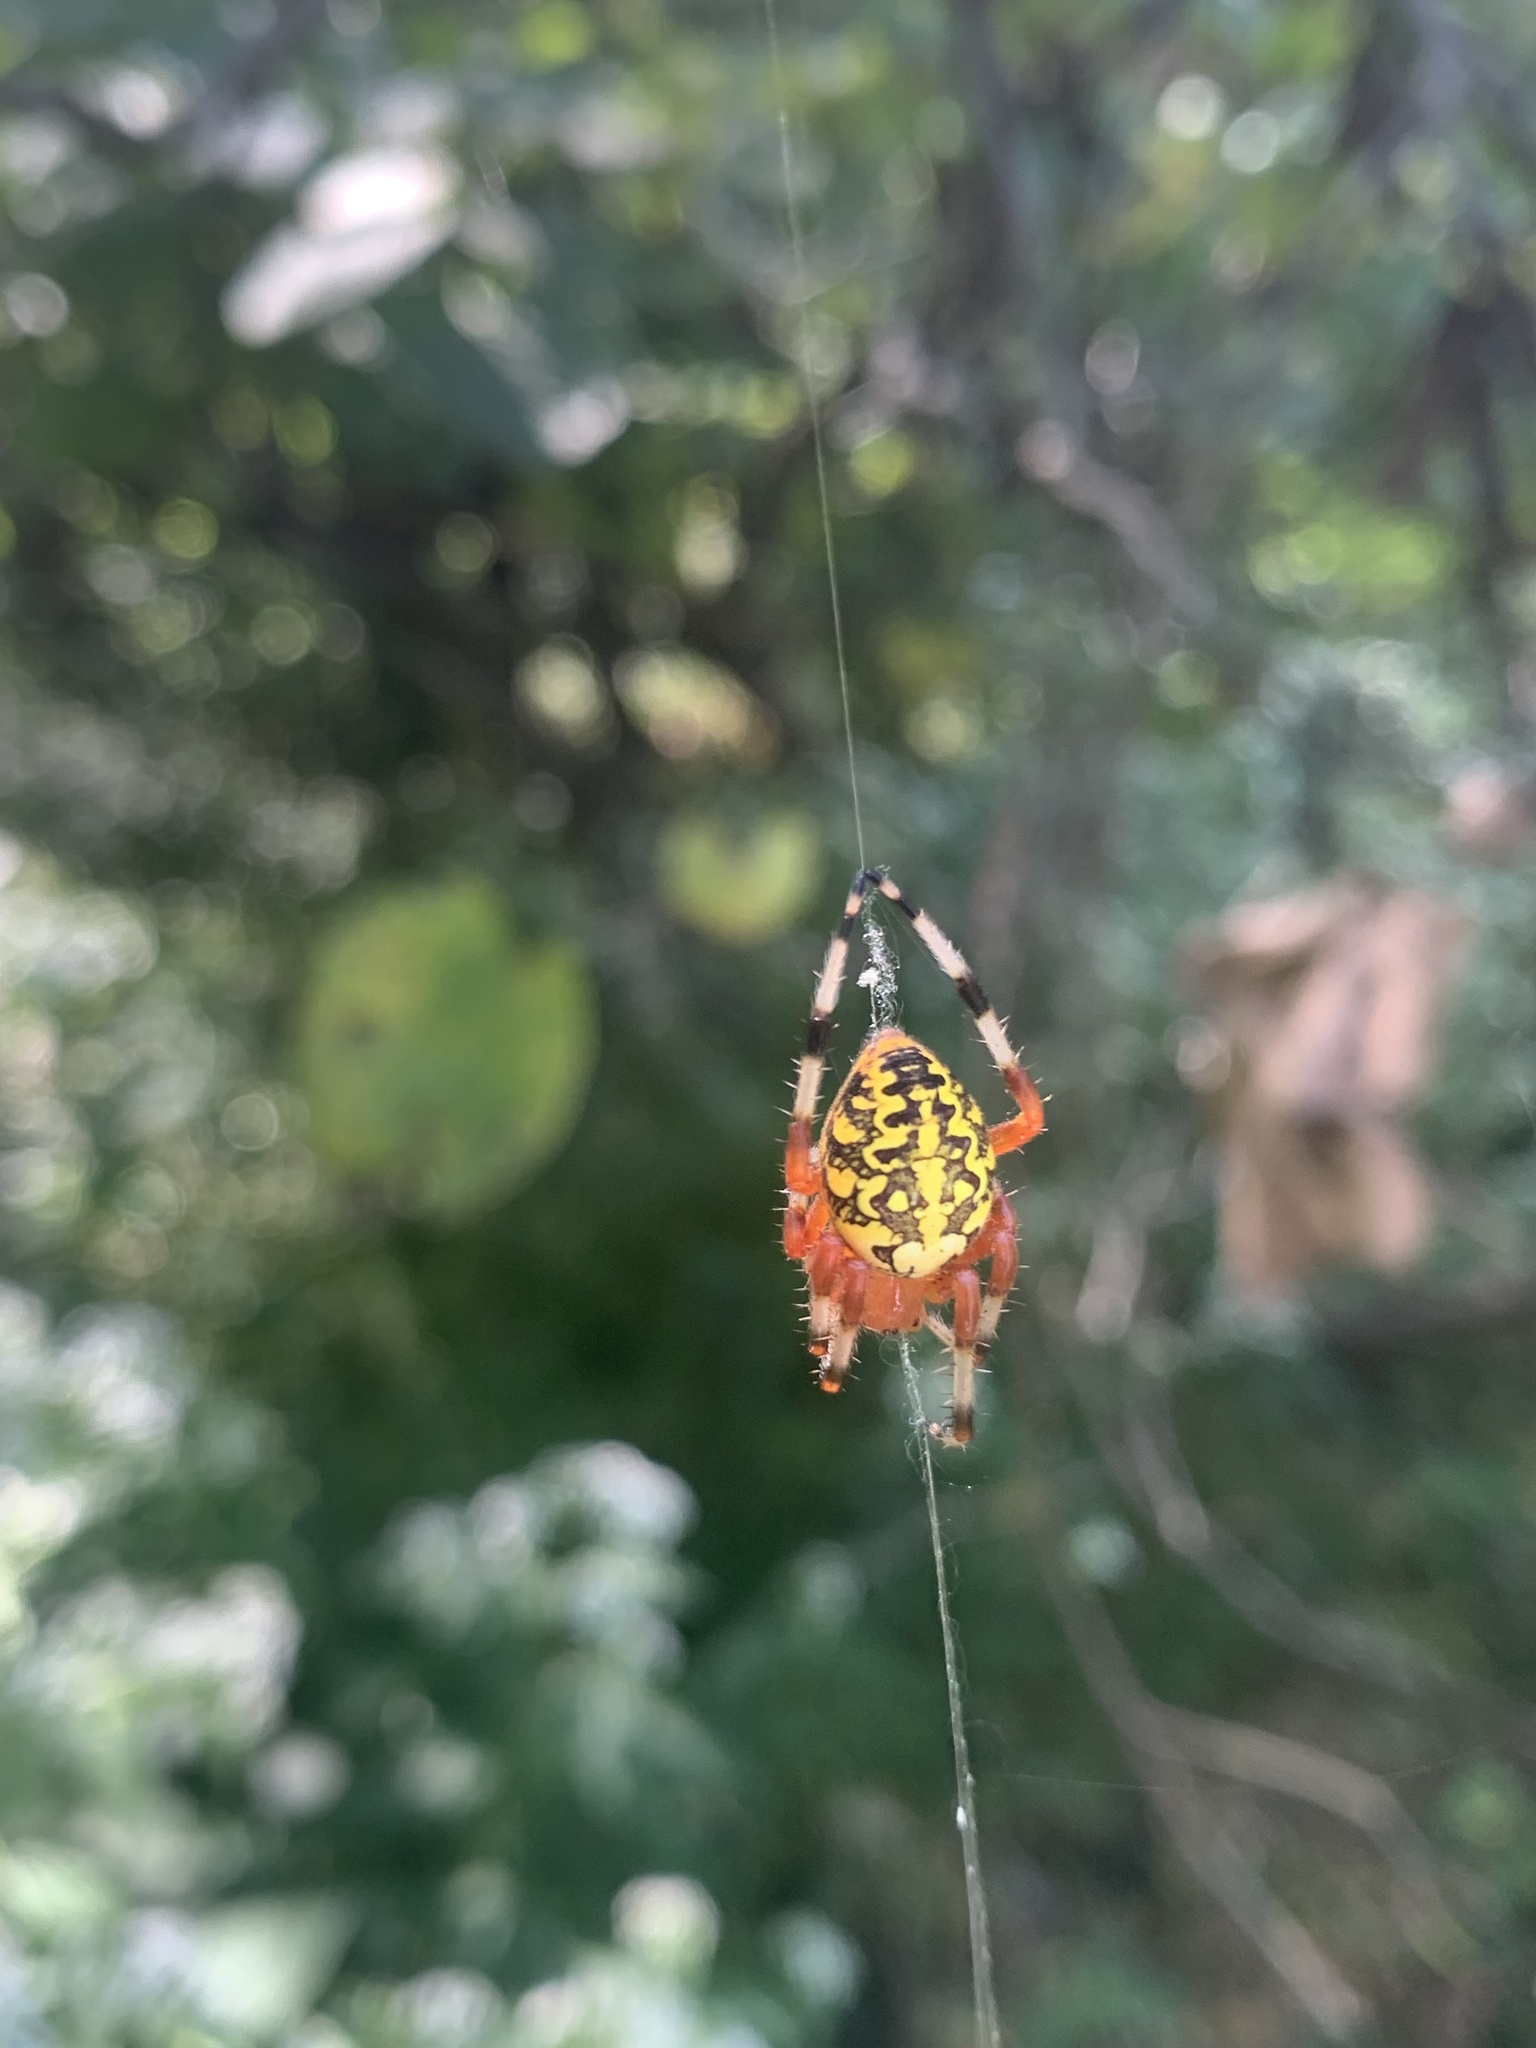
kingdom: Animalia
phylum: Arthropoda
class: Arachnida
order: Araneae
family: Araneidae
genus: Araneus
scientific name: Araneus marmoreus
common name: Marbled orbweaver
